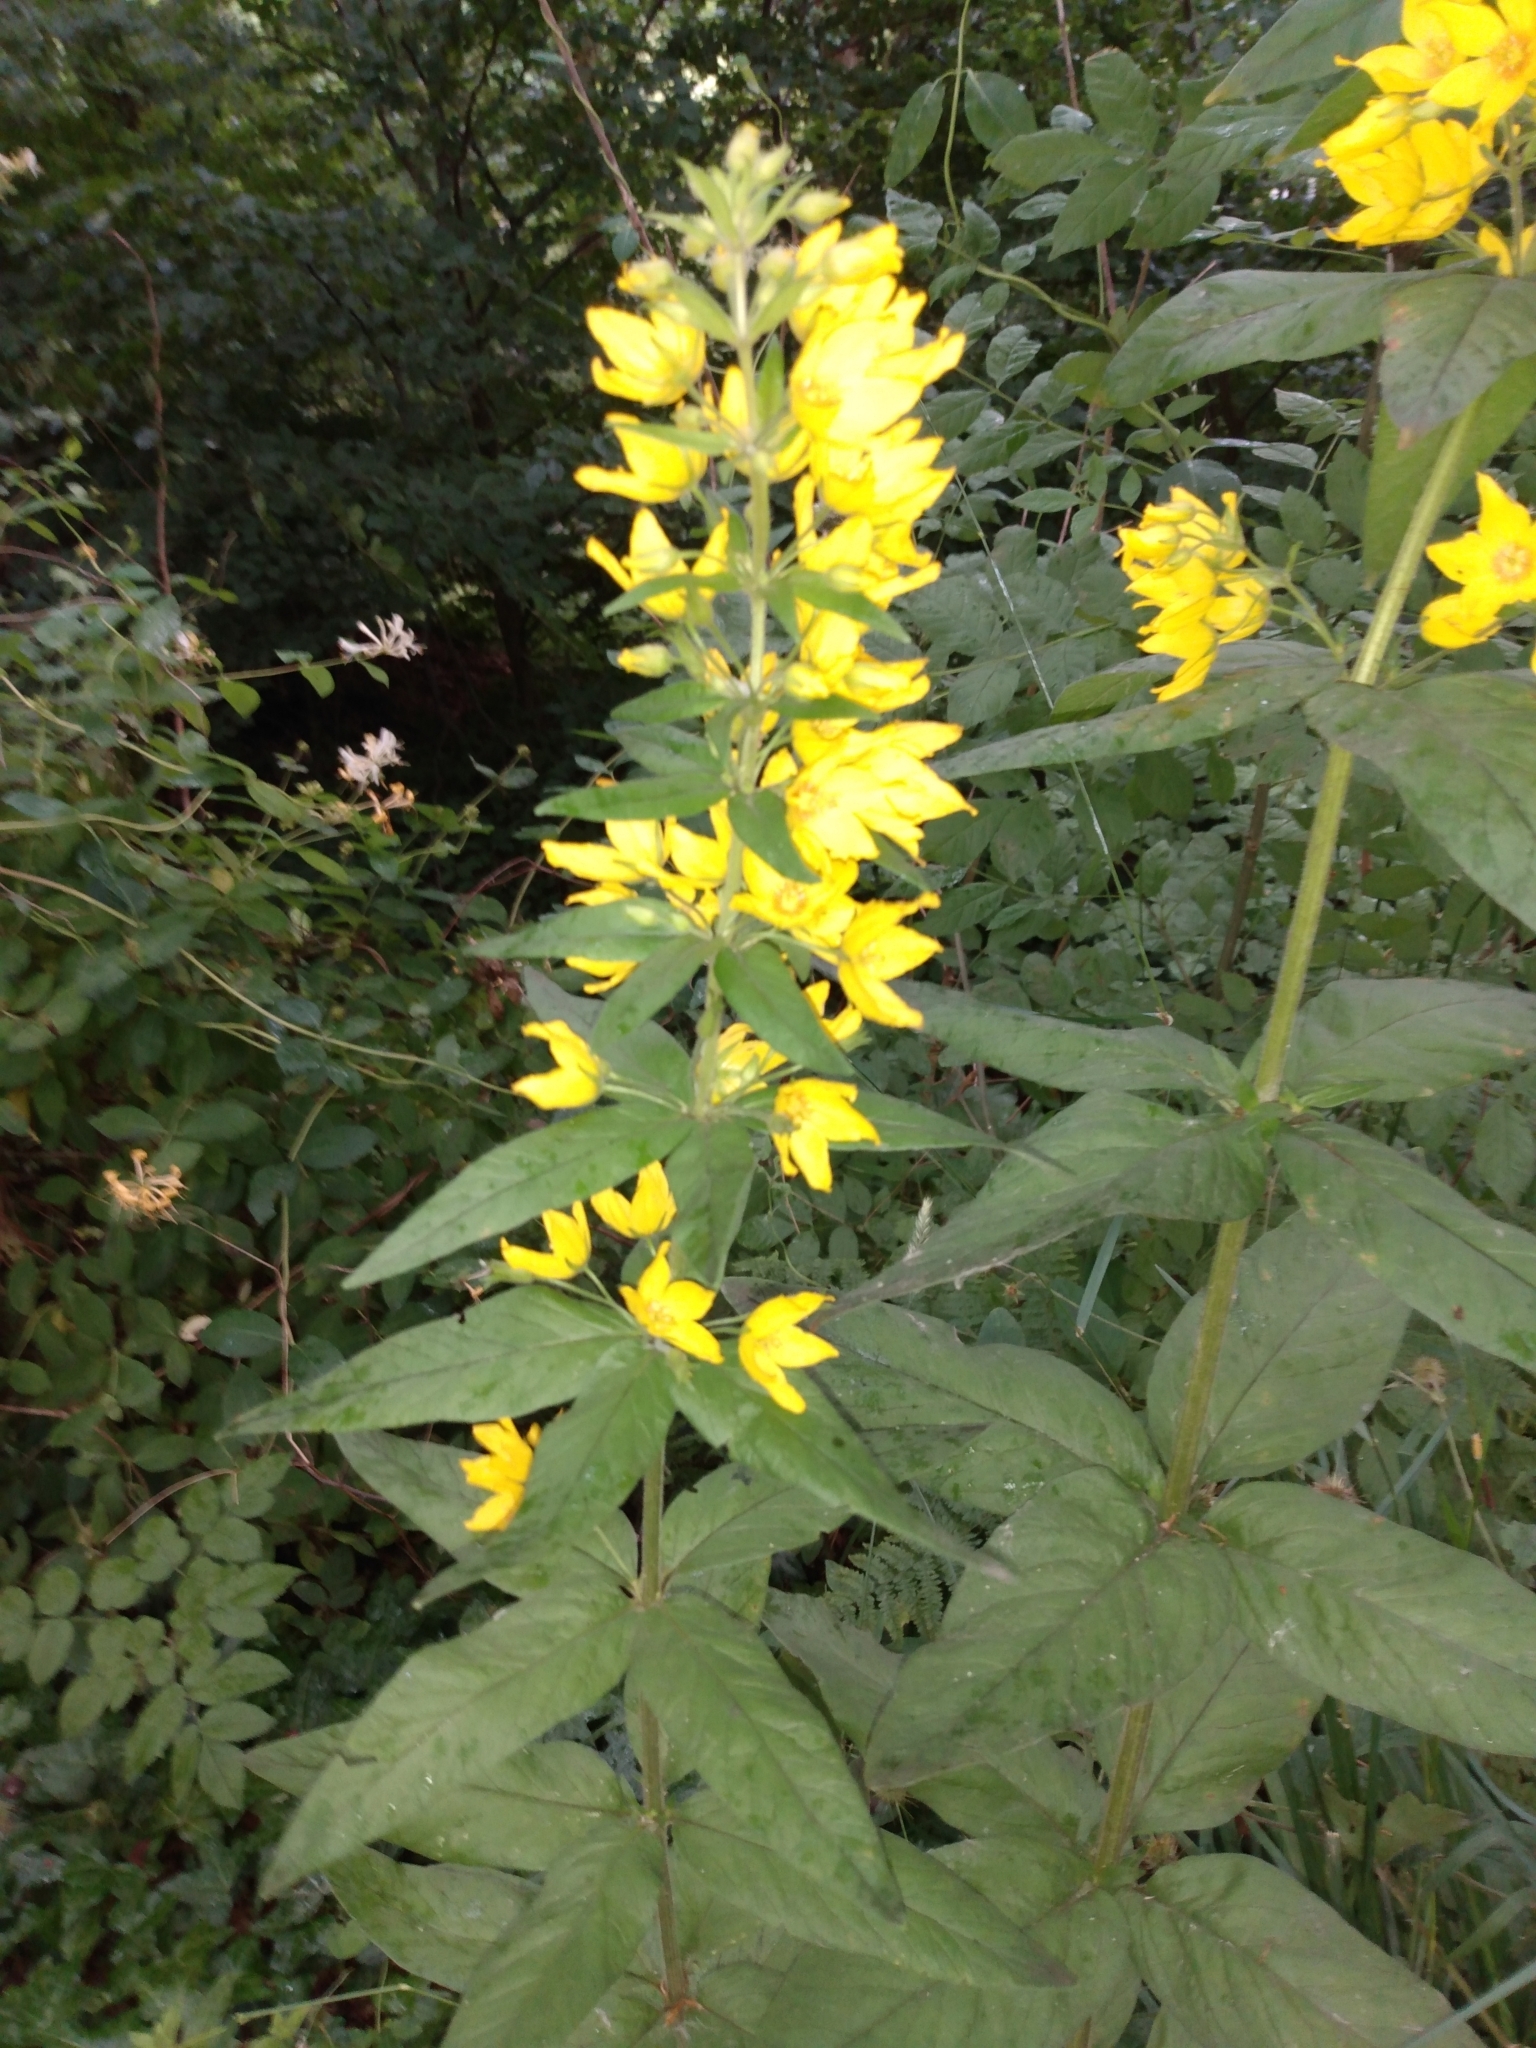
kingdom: Plantae
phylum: Tracheophyta
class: Magnoliopsida
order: Ericales
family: Primulaceae
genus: Lysimachia
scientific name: Lysimachia punctata
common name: Dotted loosestrife
